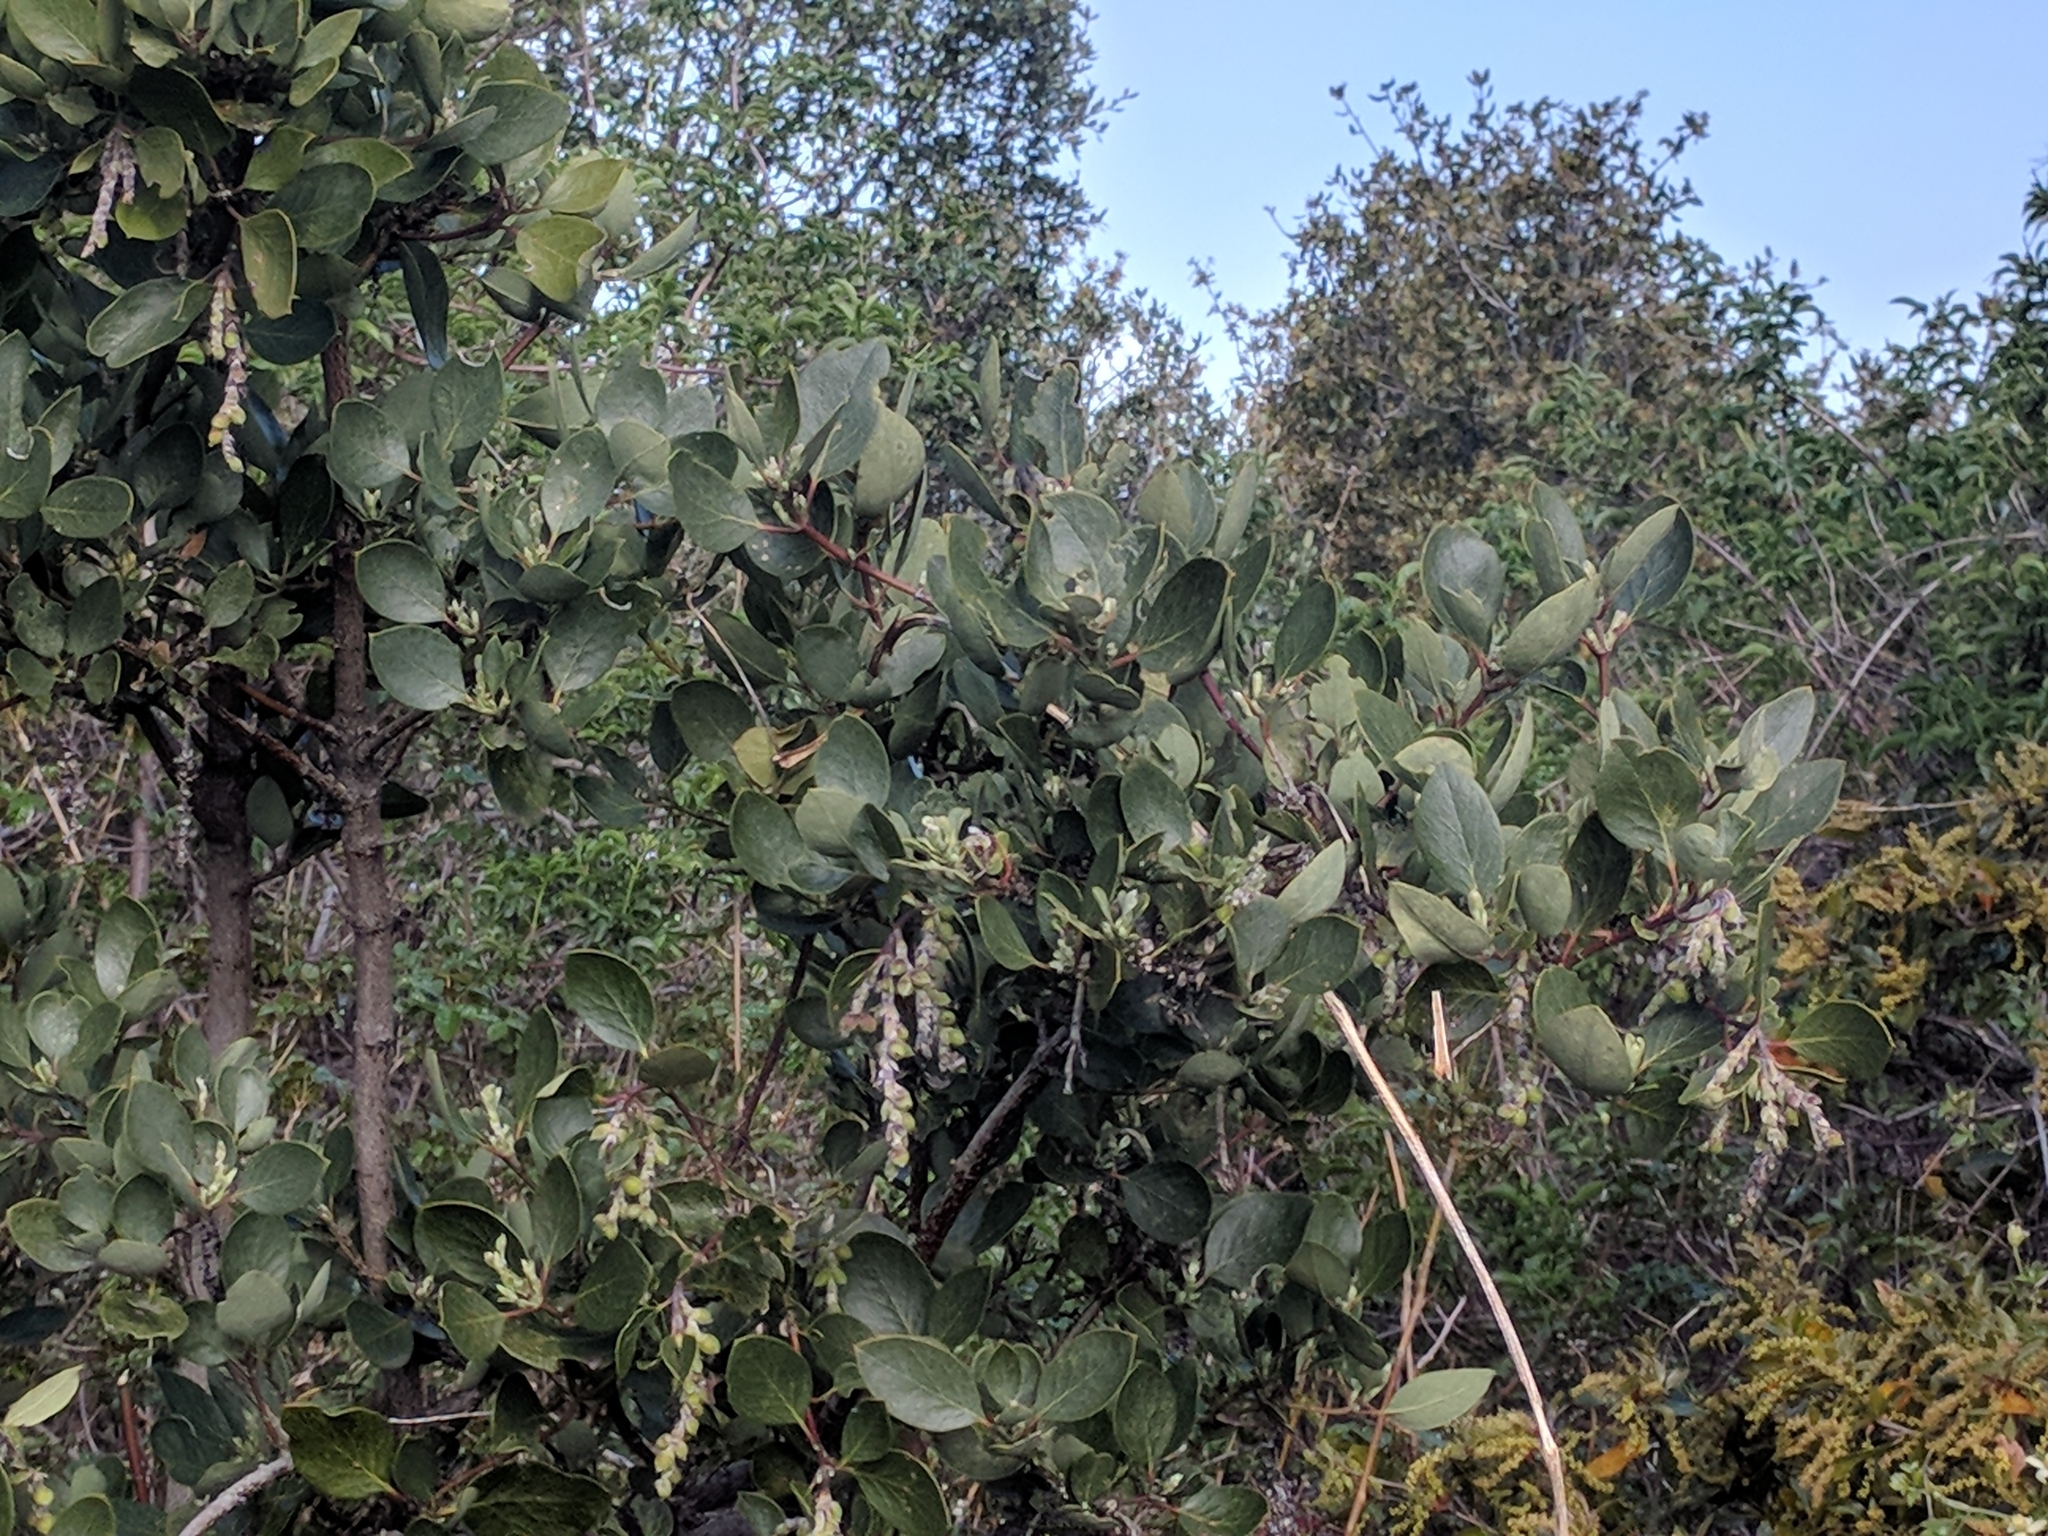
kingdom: Plantae
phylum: Tracheophyta
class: Magnoliopsida
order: Garryales
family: Garryaceae
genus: Garrya
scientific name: Garrya flavescens
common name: Ashy silk-tassel
